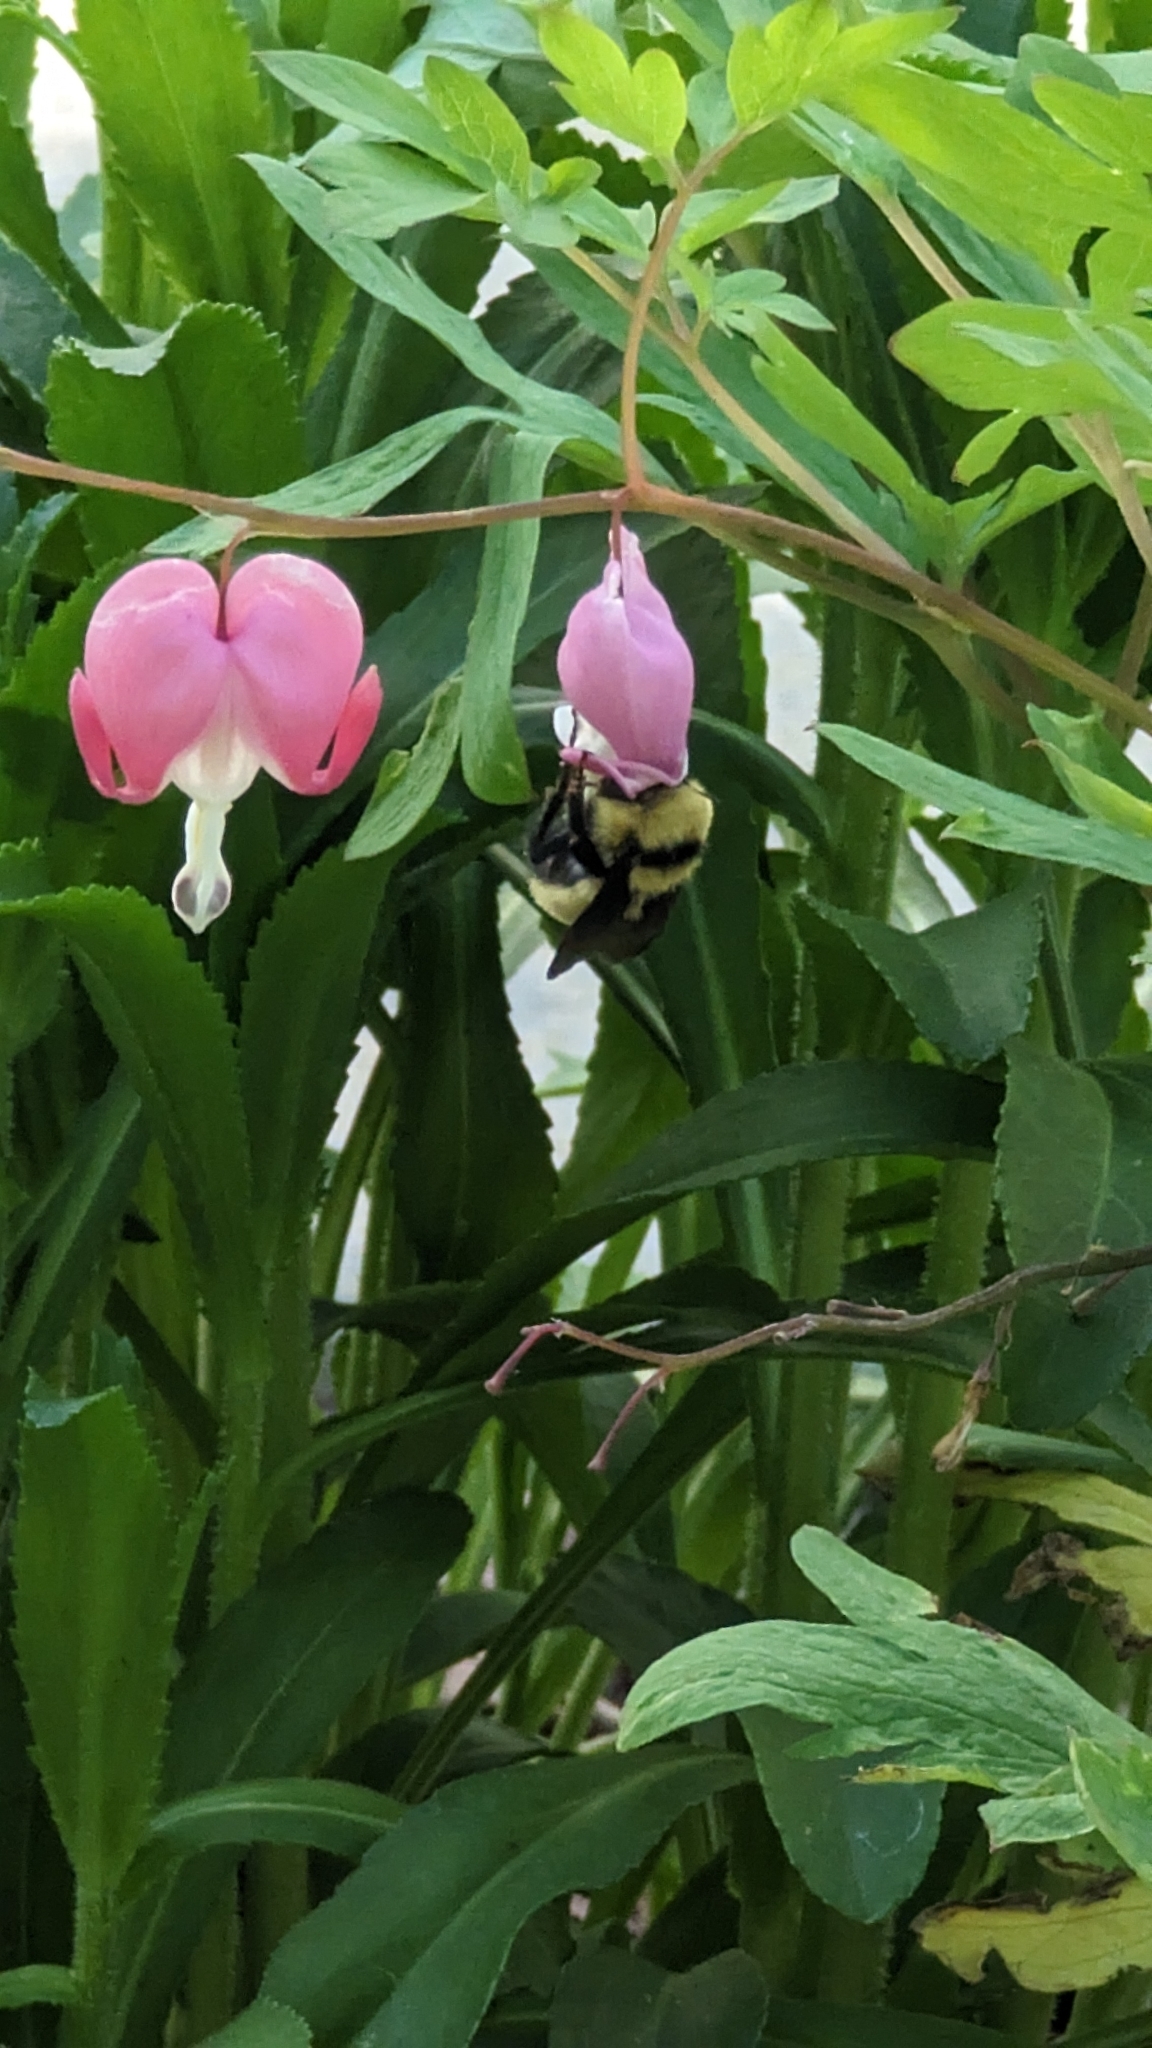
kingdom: Animalia
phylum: Arthropoda
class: Insecta
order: Hymenoptera
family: Apidae
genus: Bombus
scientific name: Bombus fervidus
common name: Yellow bumble bee
